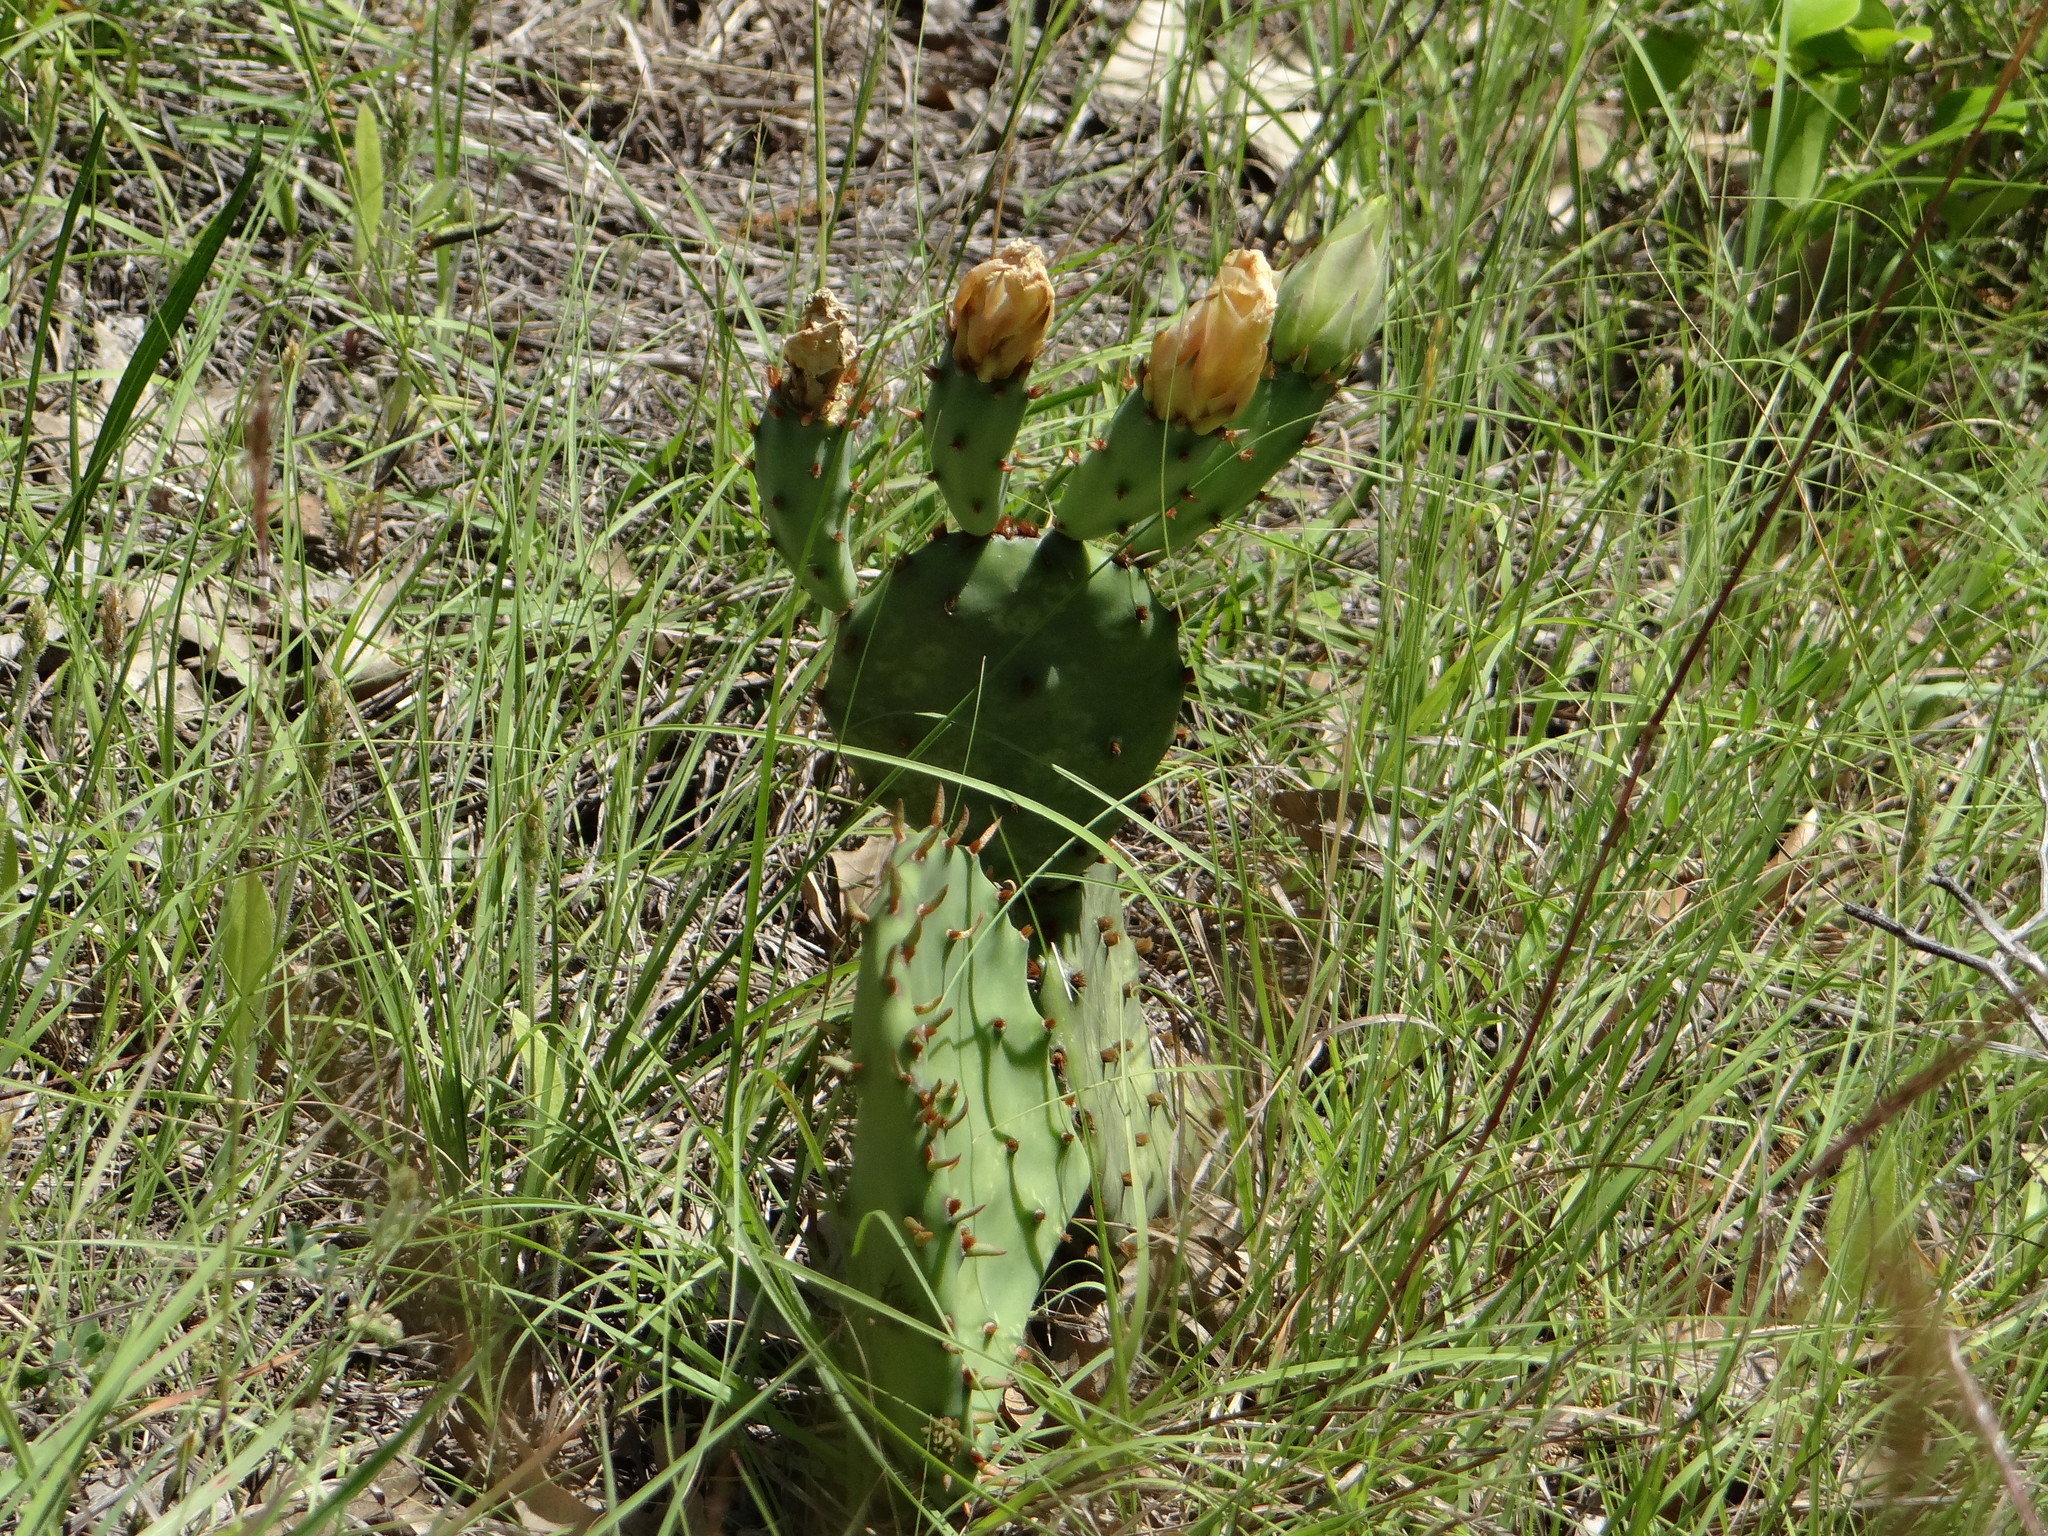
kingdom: Plantae
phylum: Tracheophyta
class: Magnoliopsida
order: Caryophyllales
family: Cactaceae
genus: Opuntia
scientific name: Opuntia macrorhiza
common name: Grassland pricklypear
